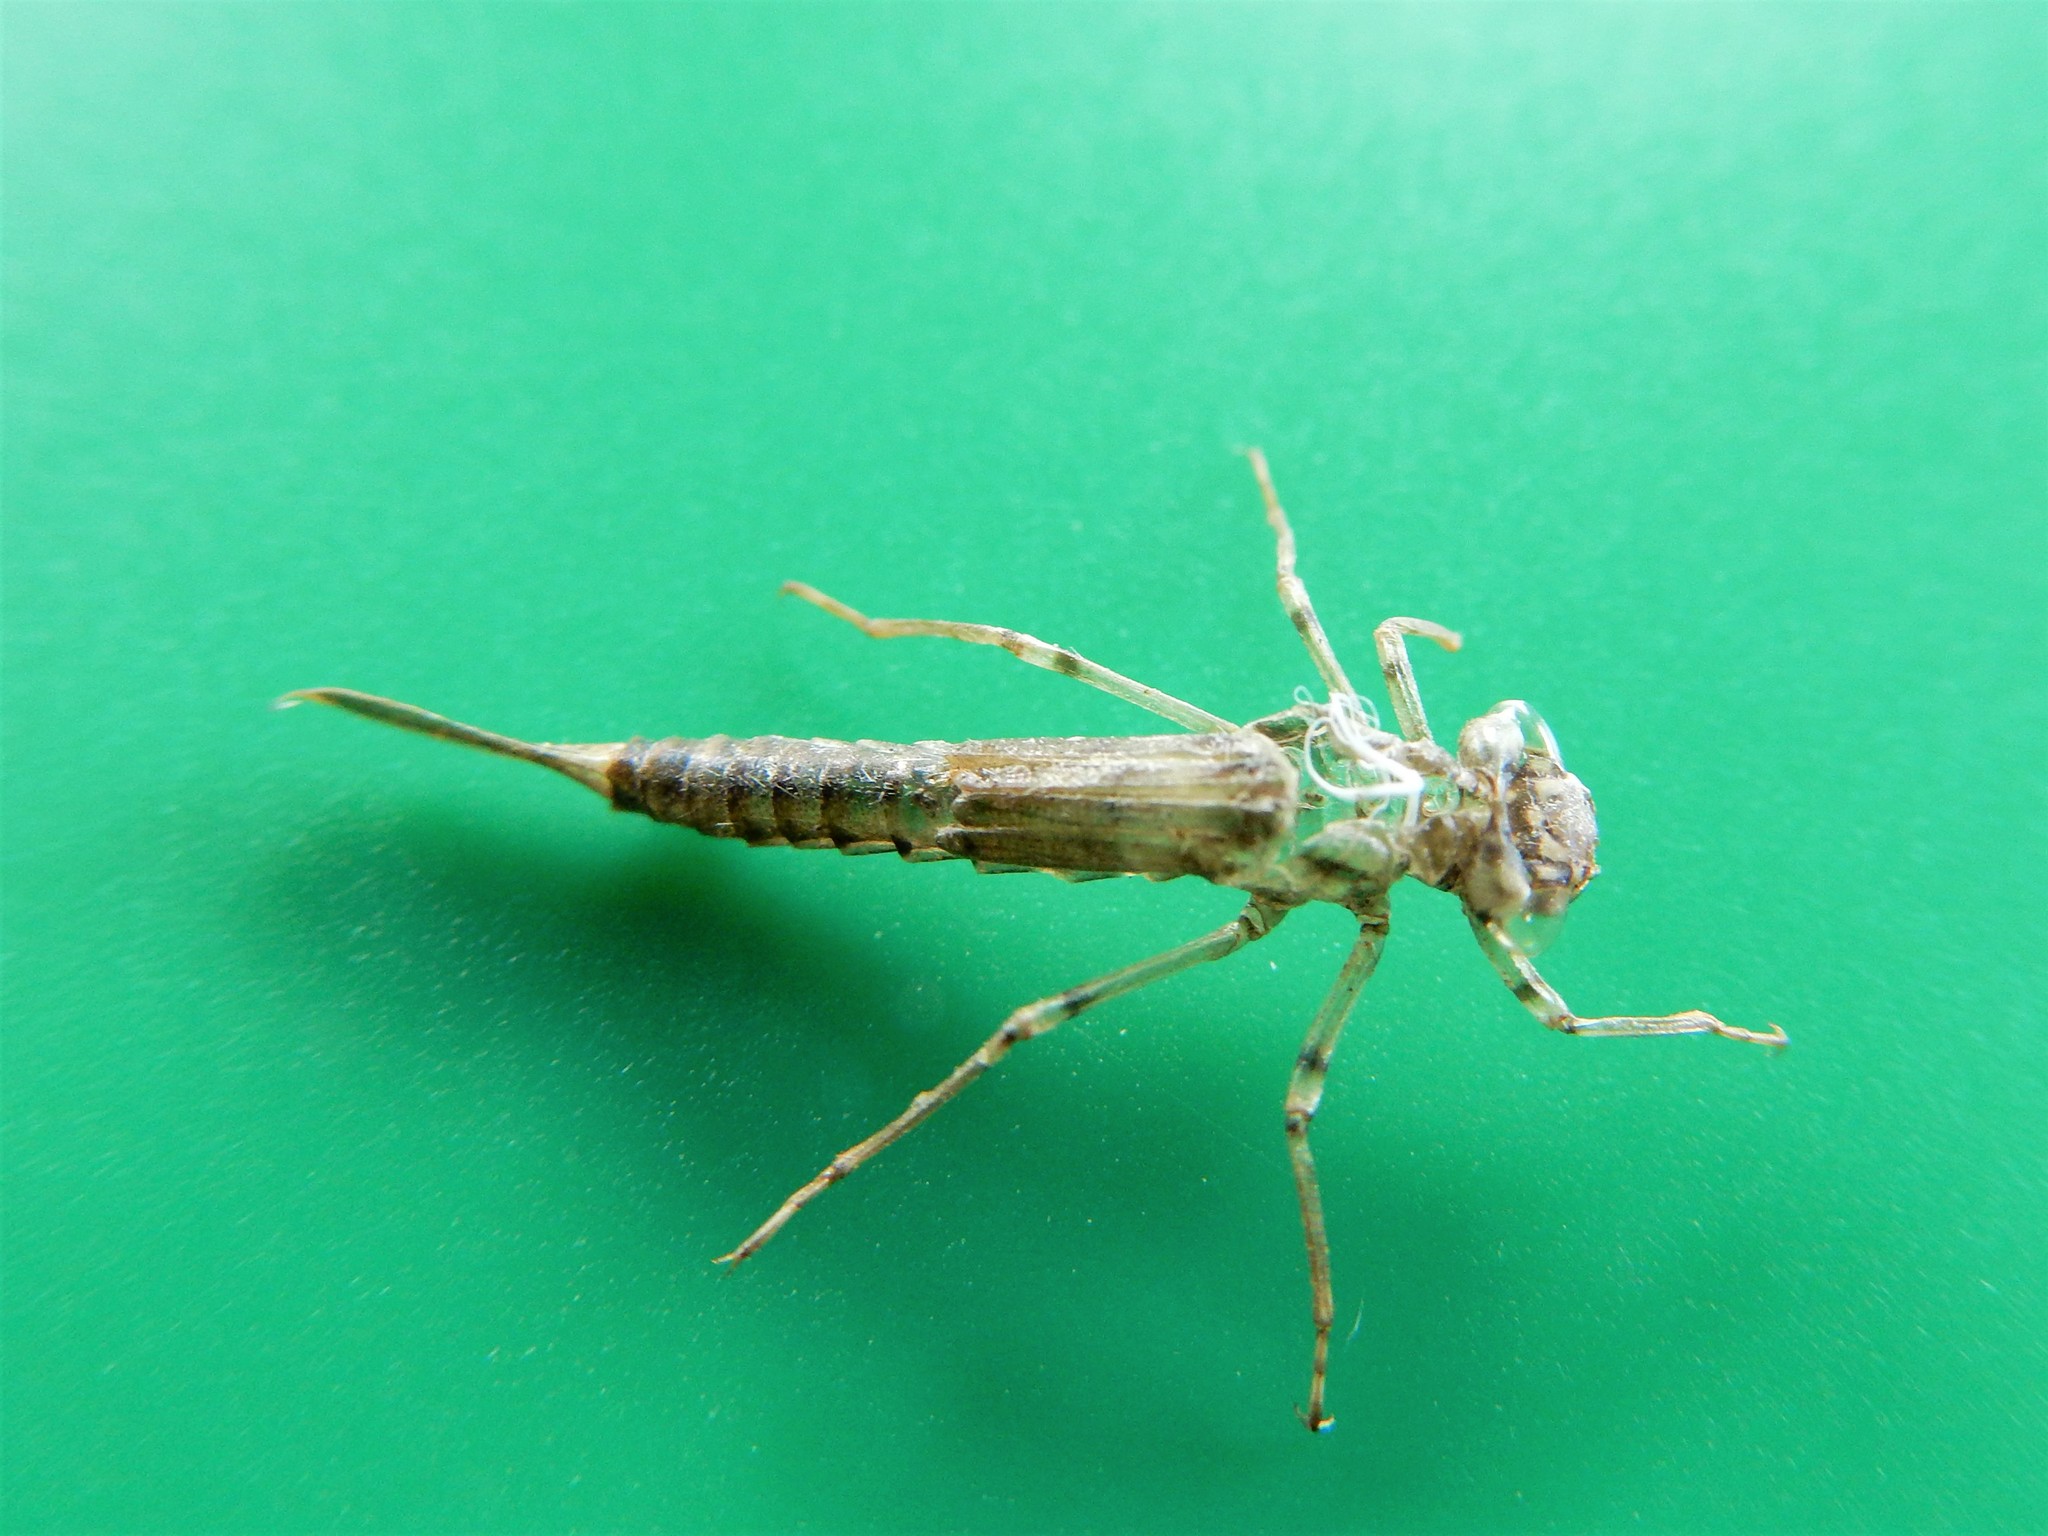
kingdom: Animalia
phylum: Arthropoda
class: Insecta
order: Odonata
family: Coenagrionidae
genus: Xanthocnemis
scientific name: Xanthocnemis zealandica
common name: Common redcoat damselfly
